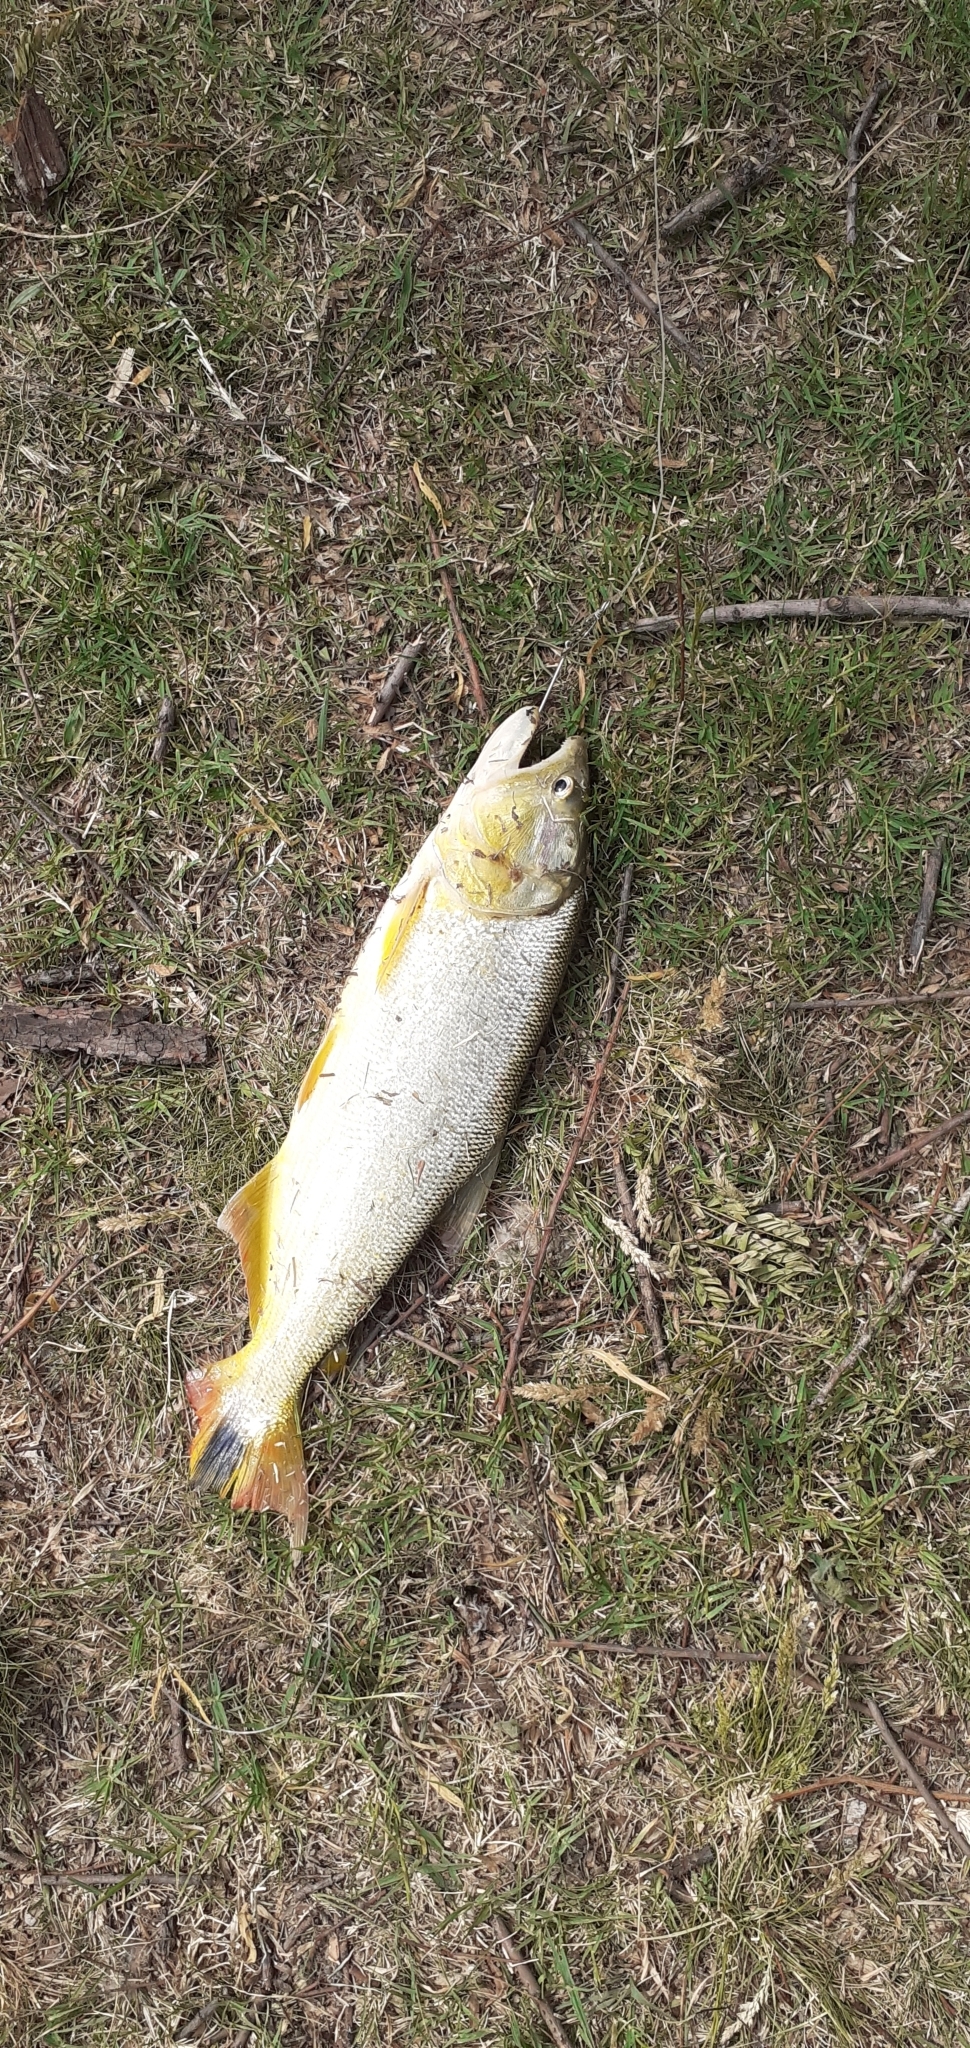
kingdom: Animalia
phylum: Chordata
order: Characiformes
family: Bryconidae
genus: Salminus
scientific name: Salminus brasiliensis
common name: Dorado
